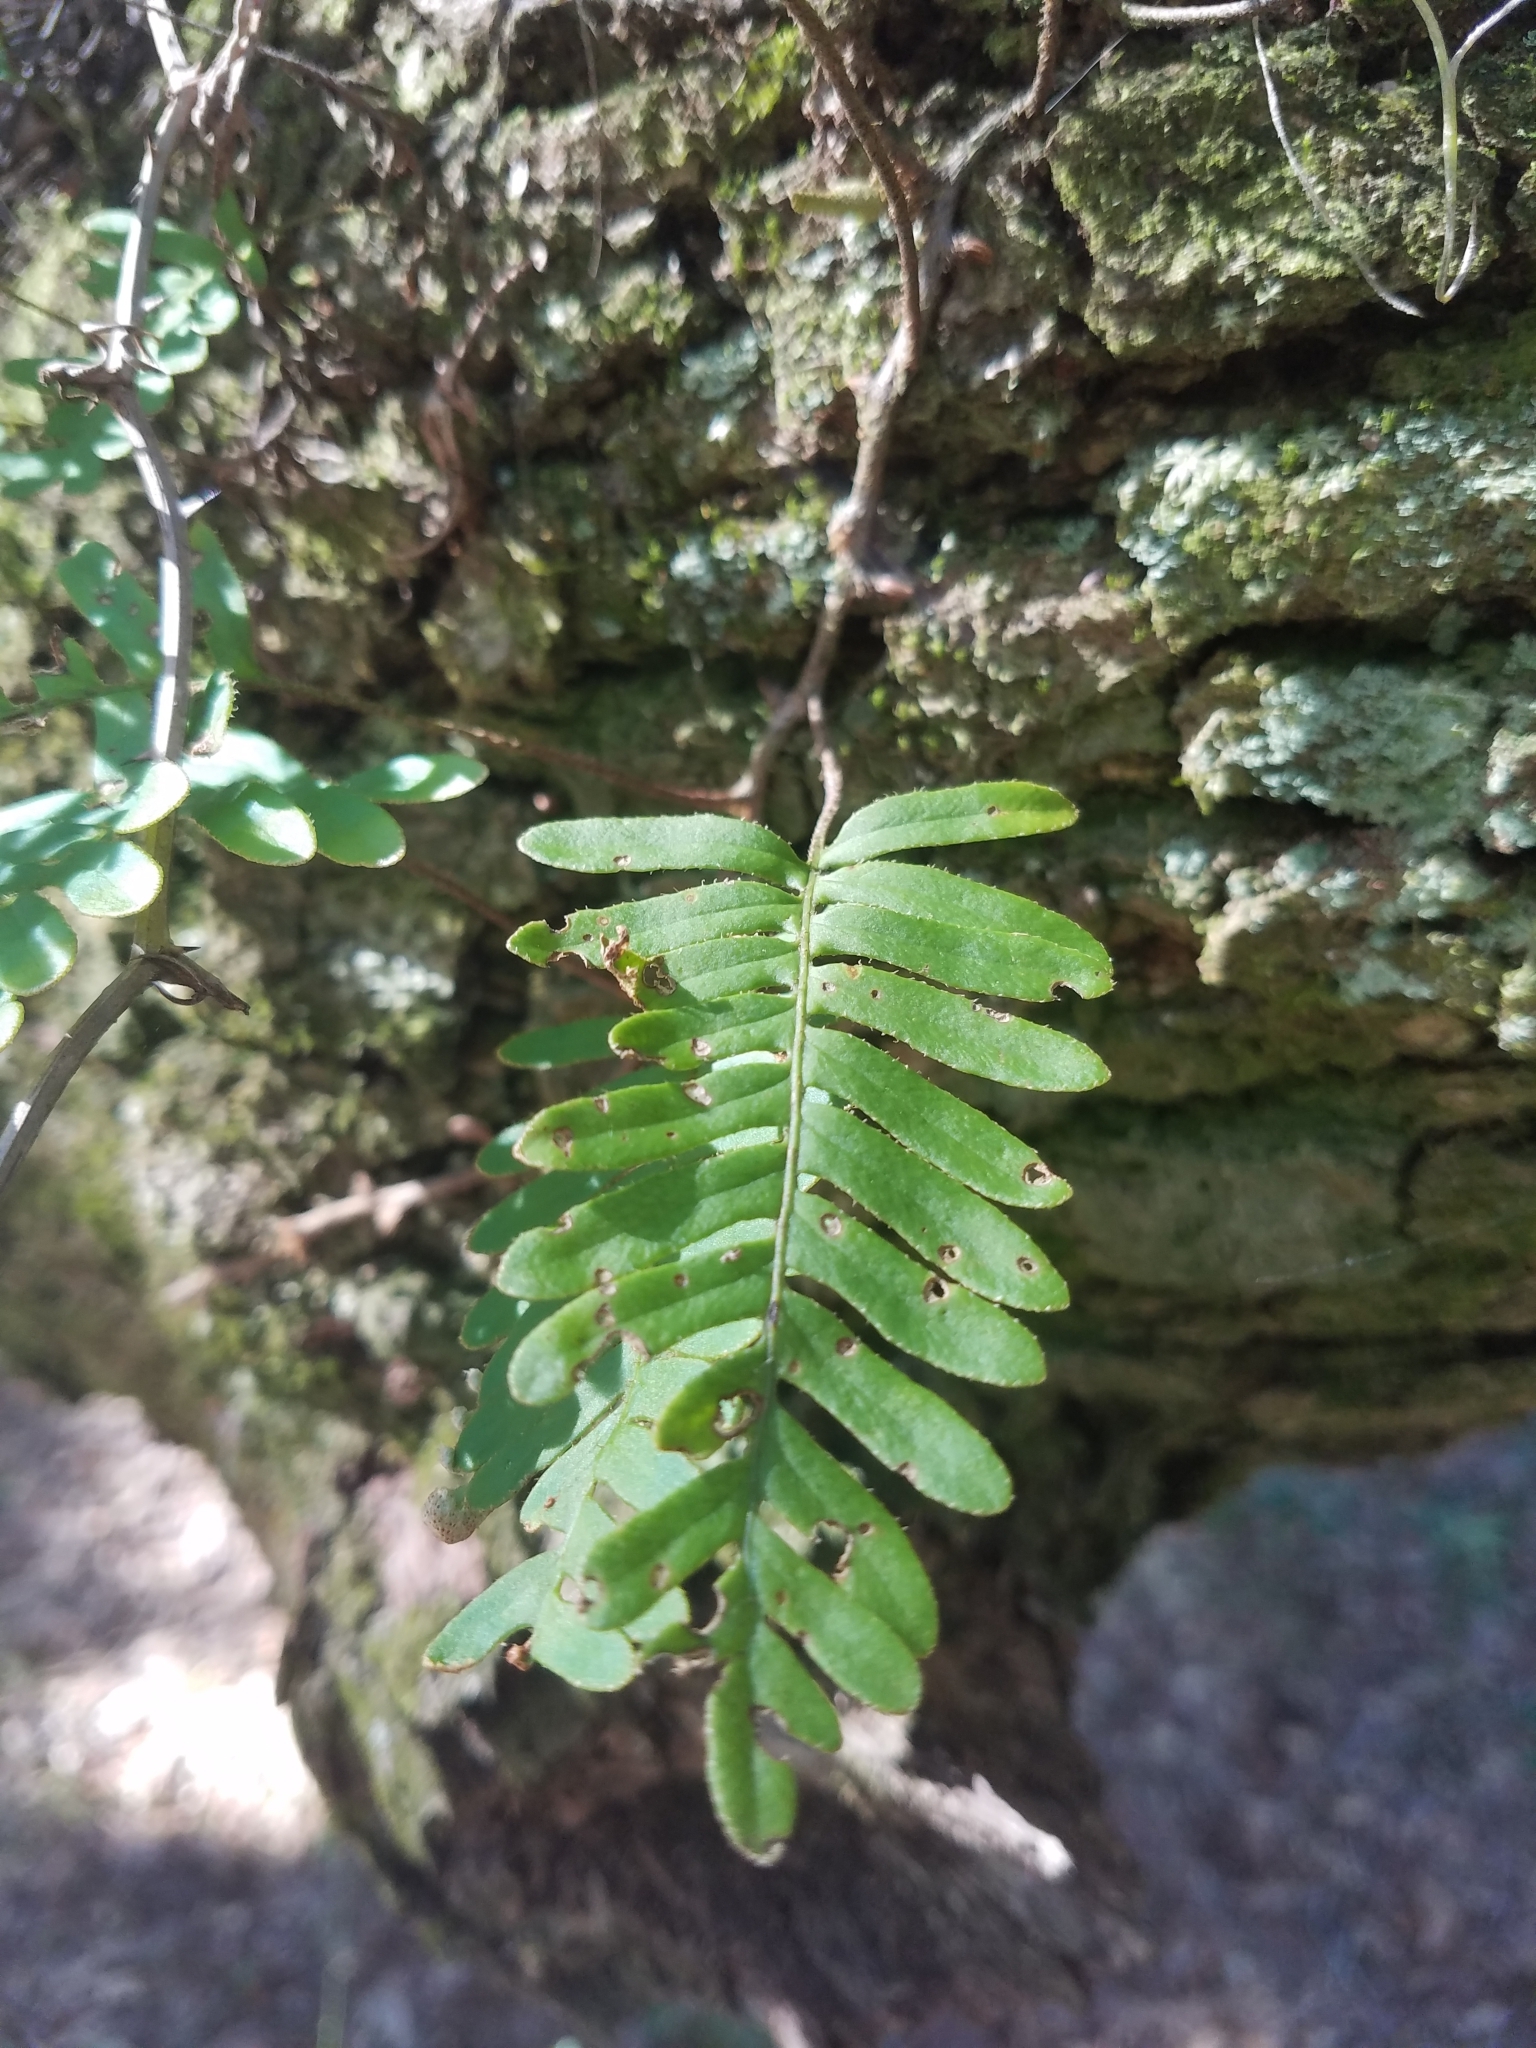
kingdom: Plantae
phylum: Tracheophyta
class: Polypodiopsida
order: Polypodiales
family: Polypodiaceae
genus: Pleopeltis
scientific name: Pleopeltis michauxiana
